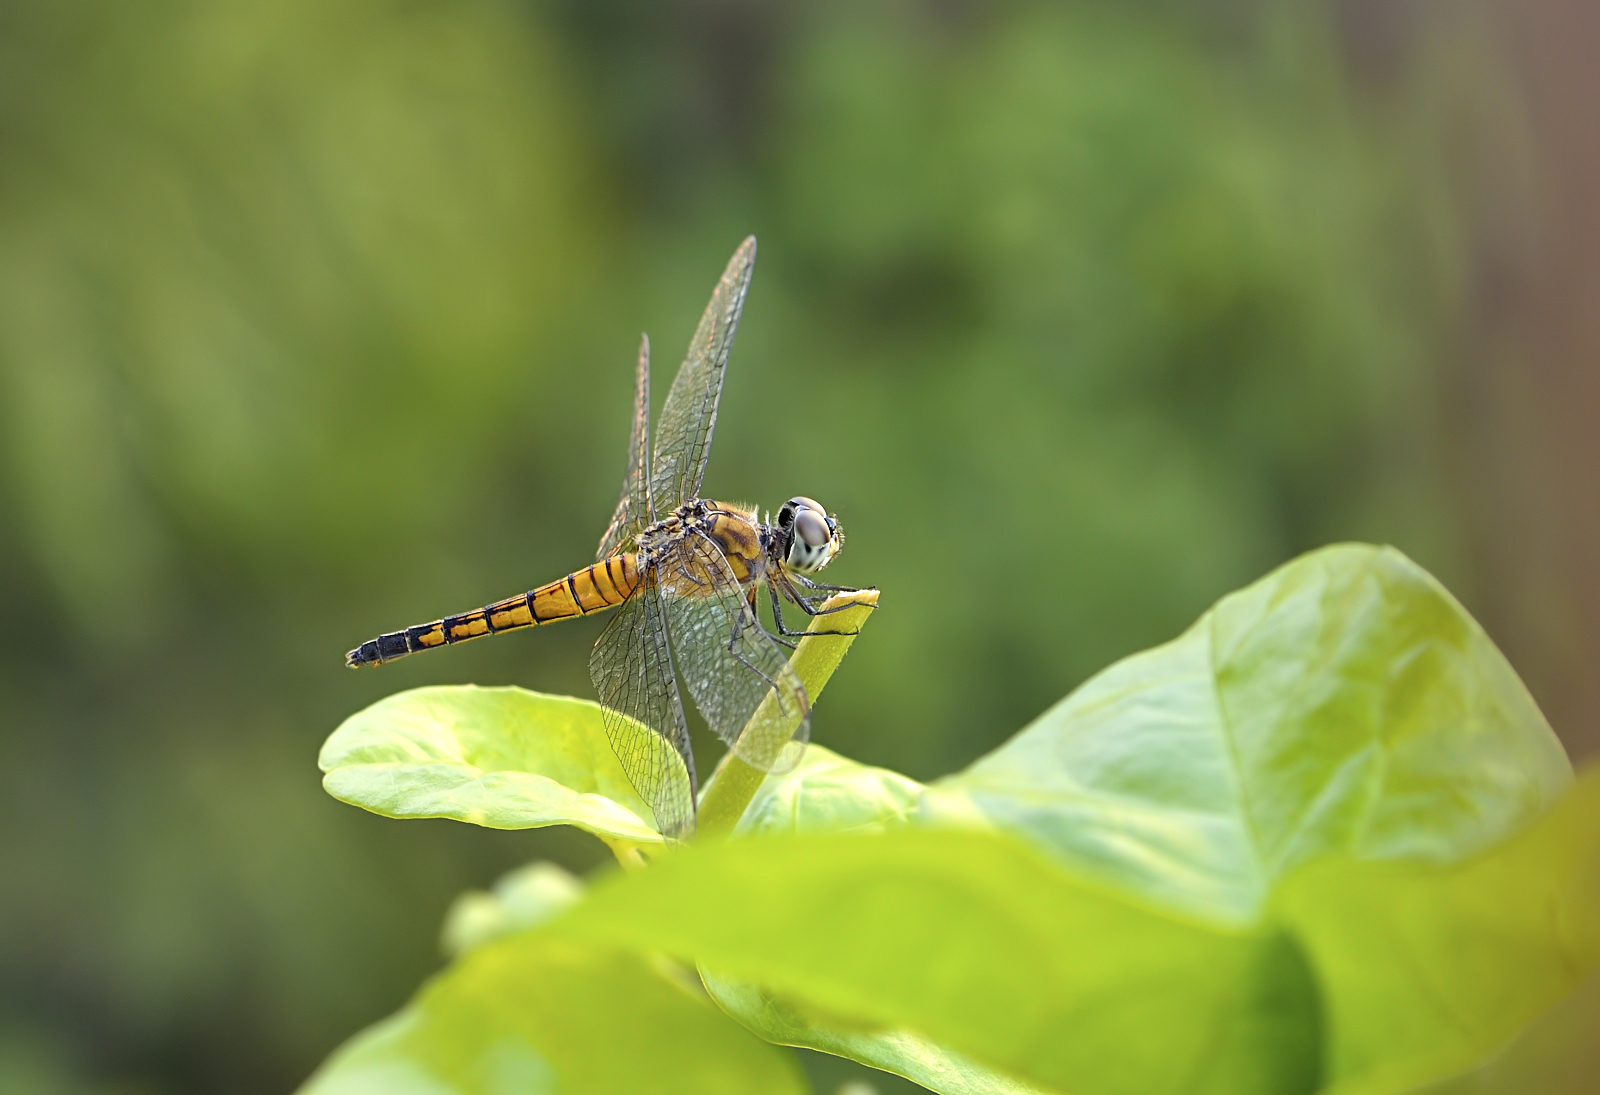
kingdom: Animalia
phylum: Arthropoda
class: Insecta
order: Odonata
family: Libellulidae
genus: Brachydiplax
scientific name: Brachydiplax chalybea
